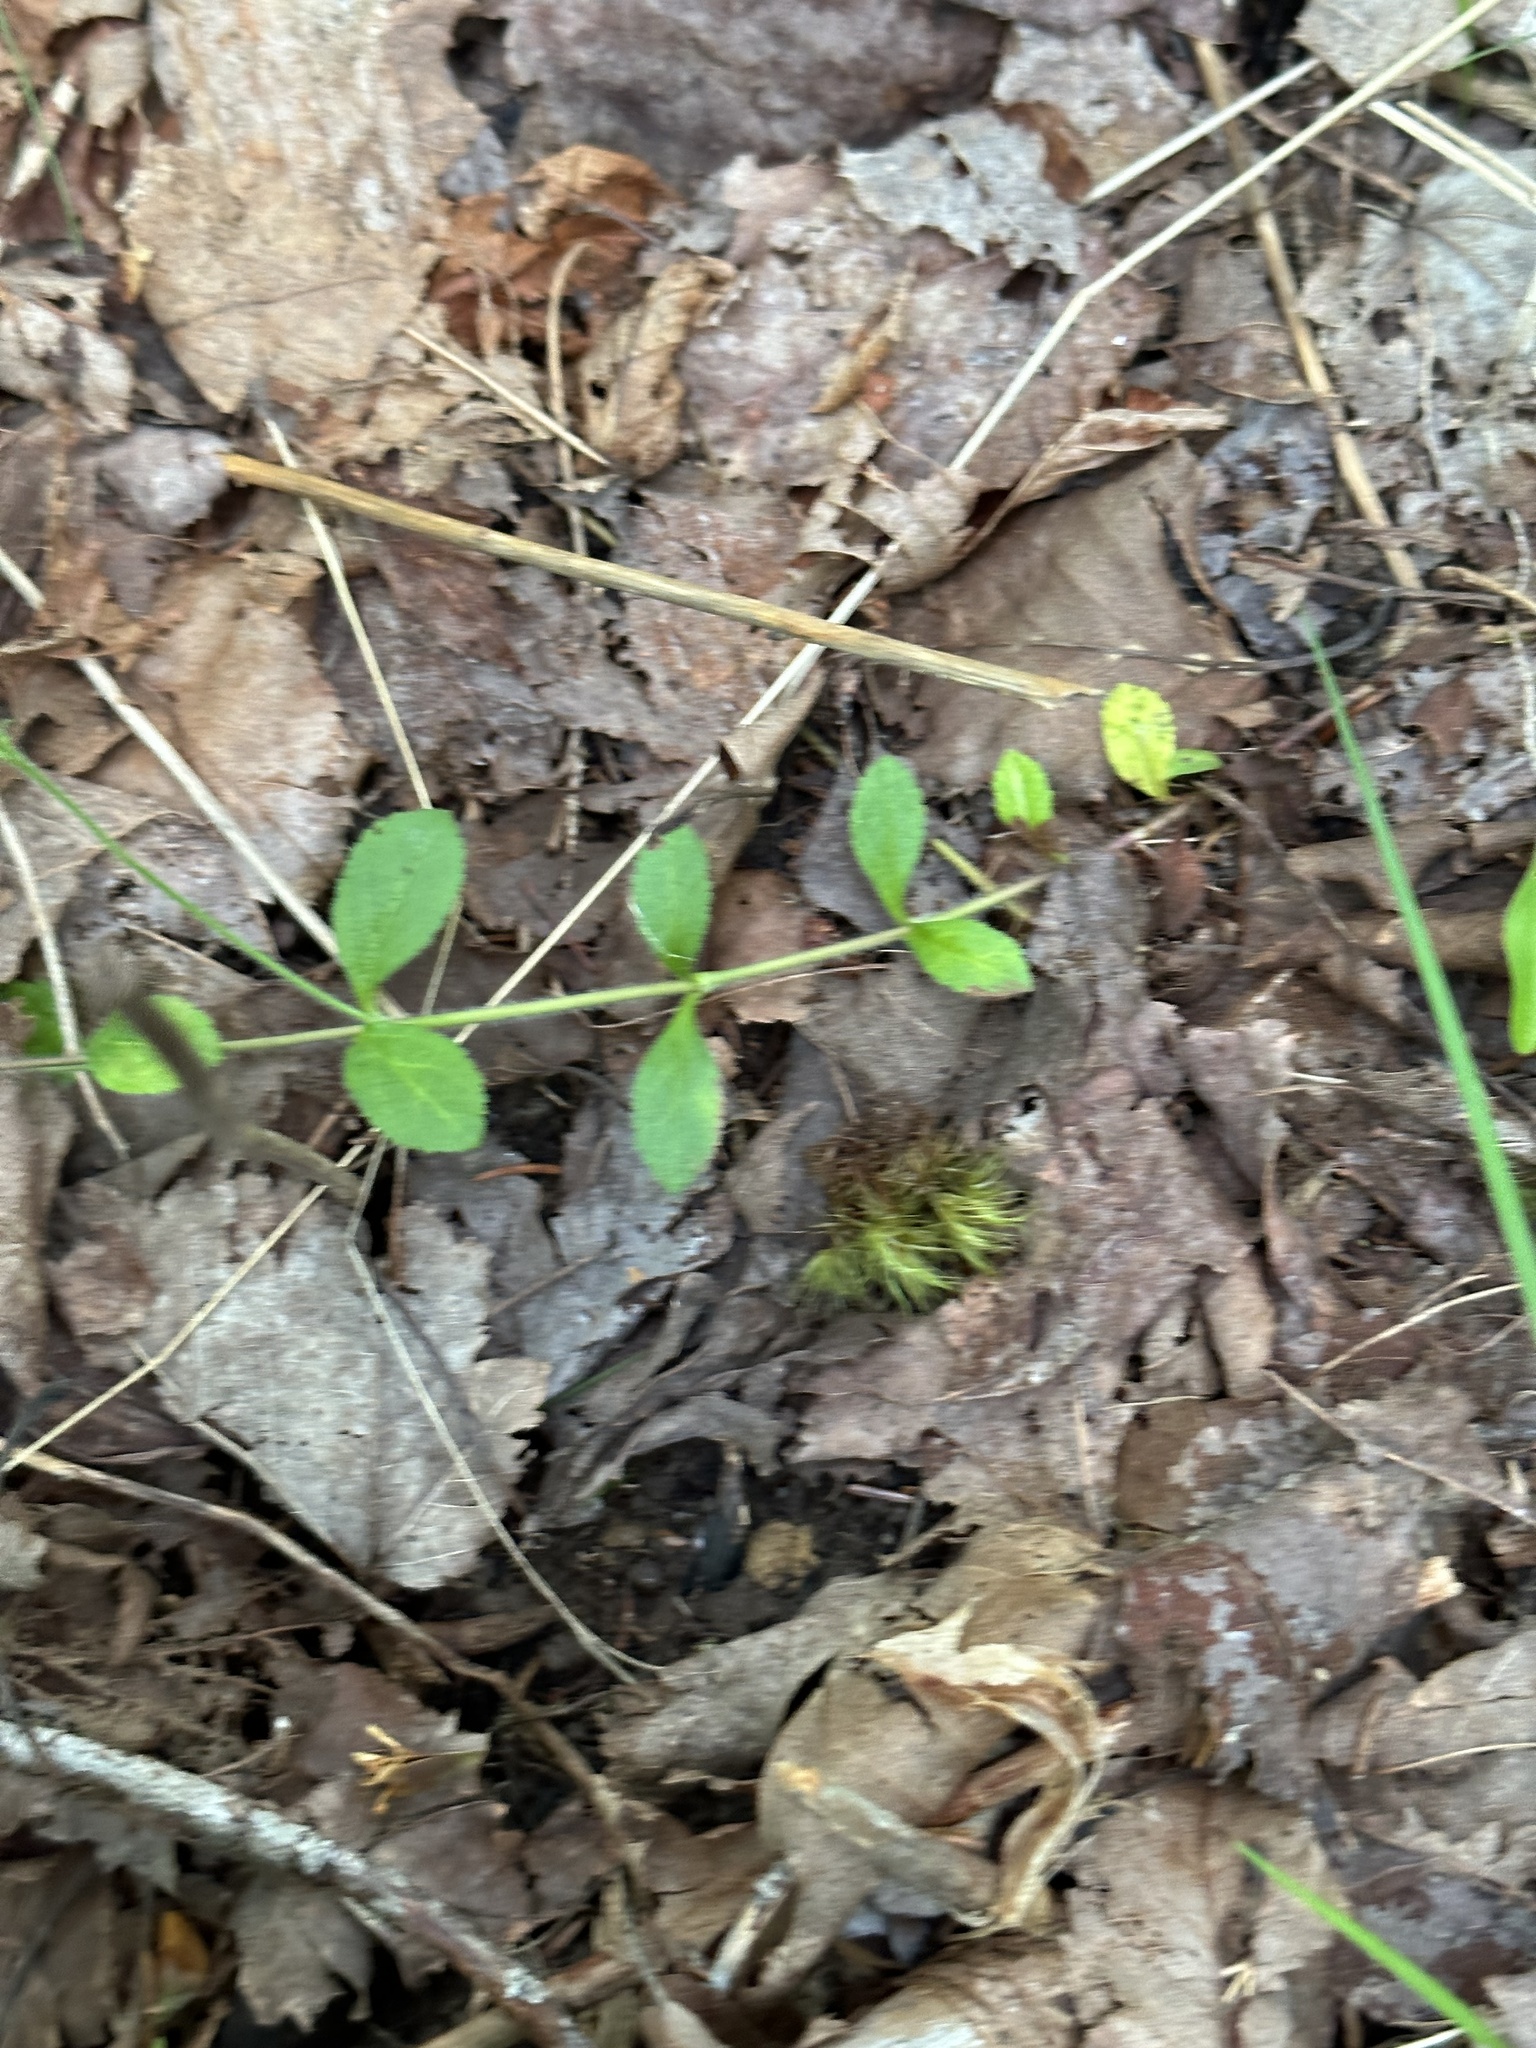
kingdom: Plantae
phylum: Tracheophyta
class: Magnoliopsida
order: Lamiales
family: Plantaginaceae
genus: Veronica
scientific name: Veronica officinalis
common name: Common speedwell
